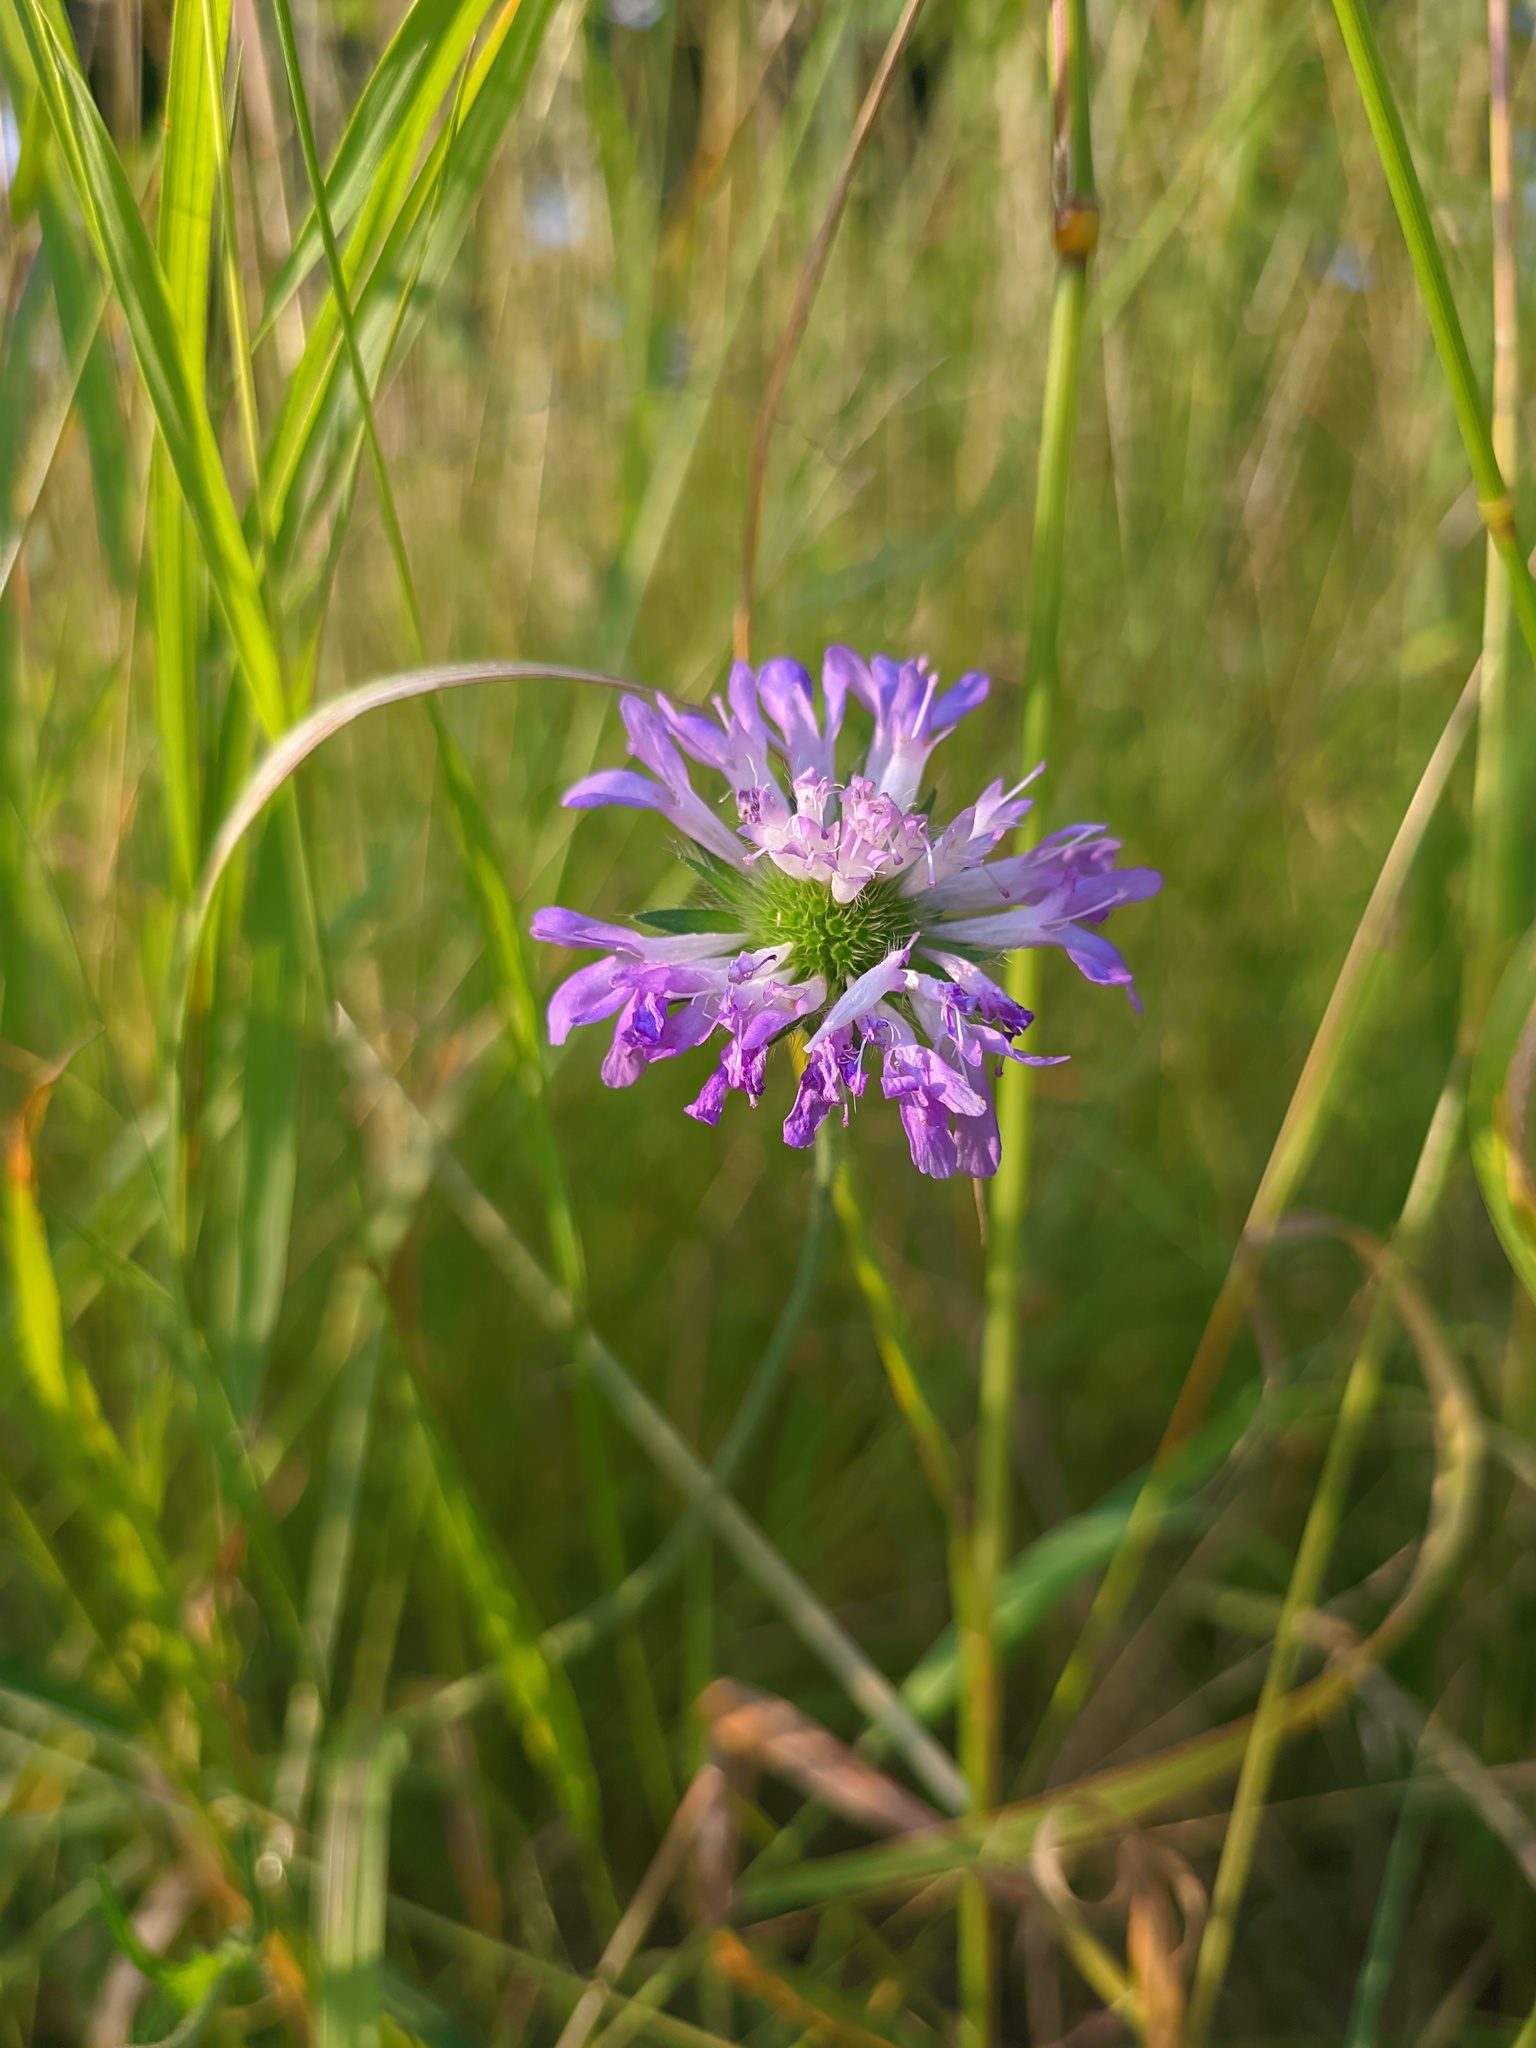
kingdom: Plantae
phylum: Tracheophyta
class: Magnoliopsida
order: Dipsacales
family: Caprifoliaceae
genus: Knautia
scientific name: Knautia arvensis
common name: Field scabiosa
